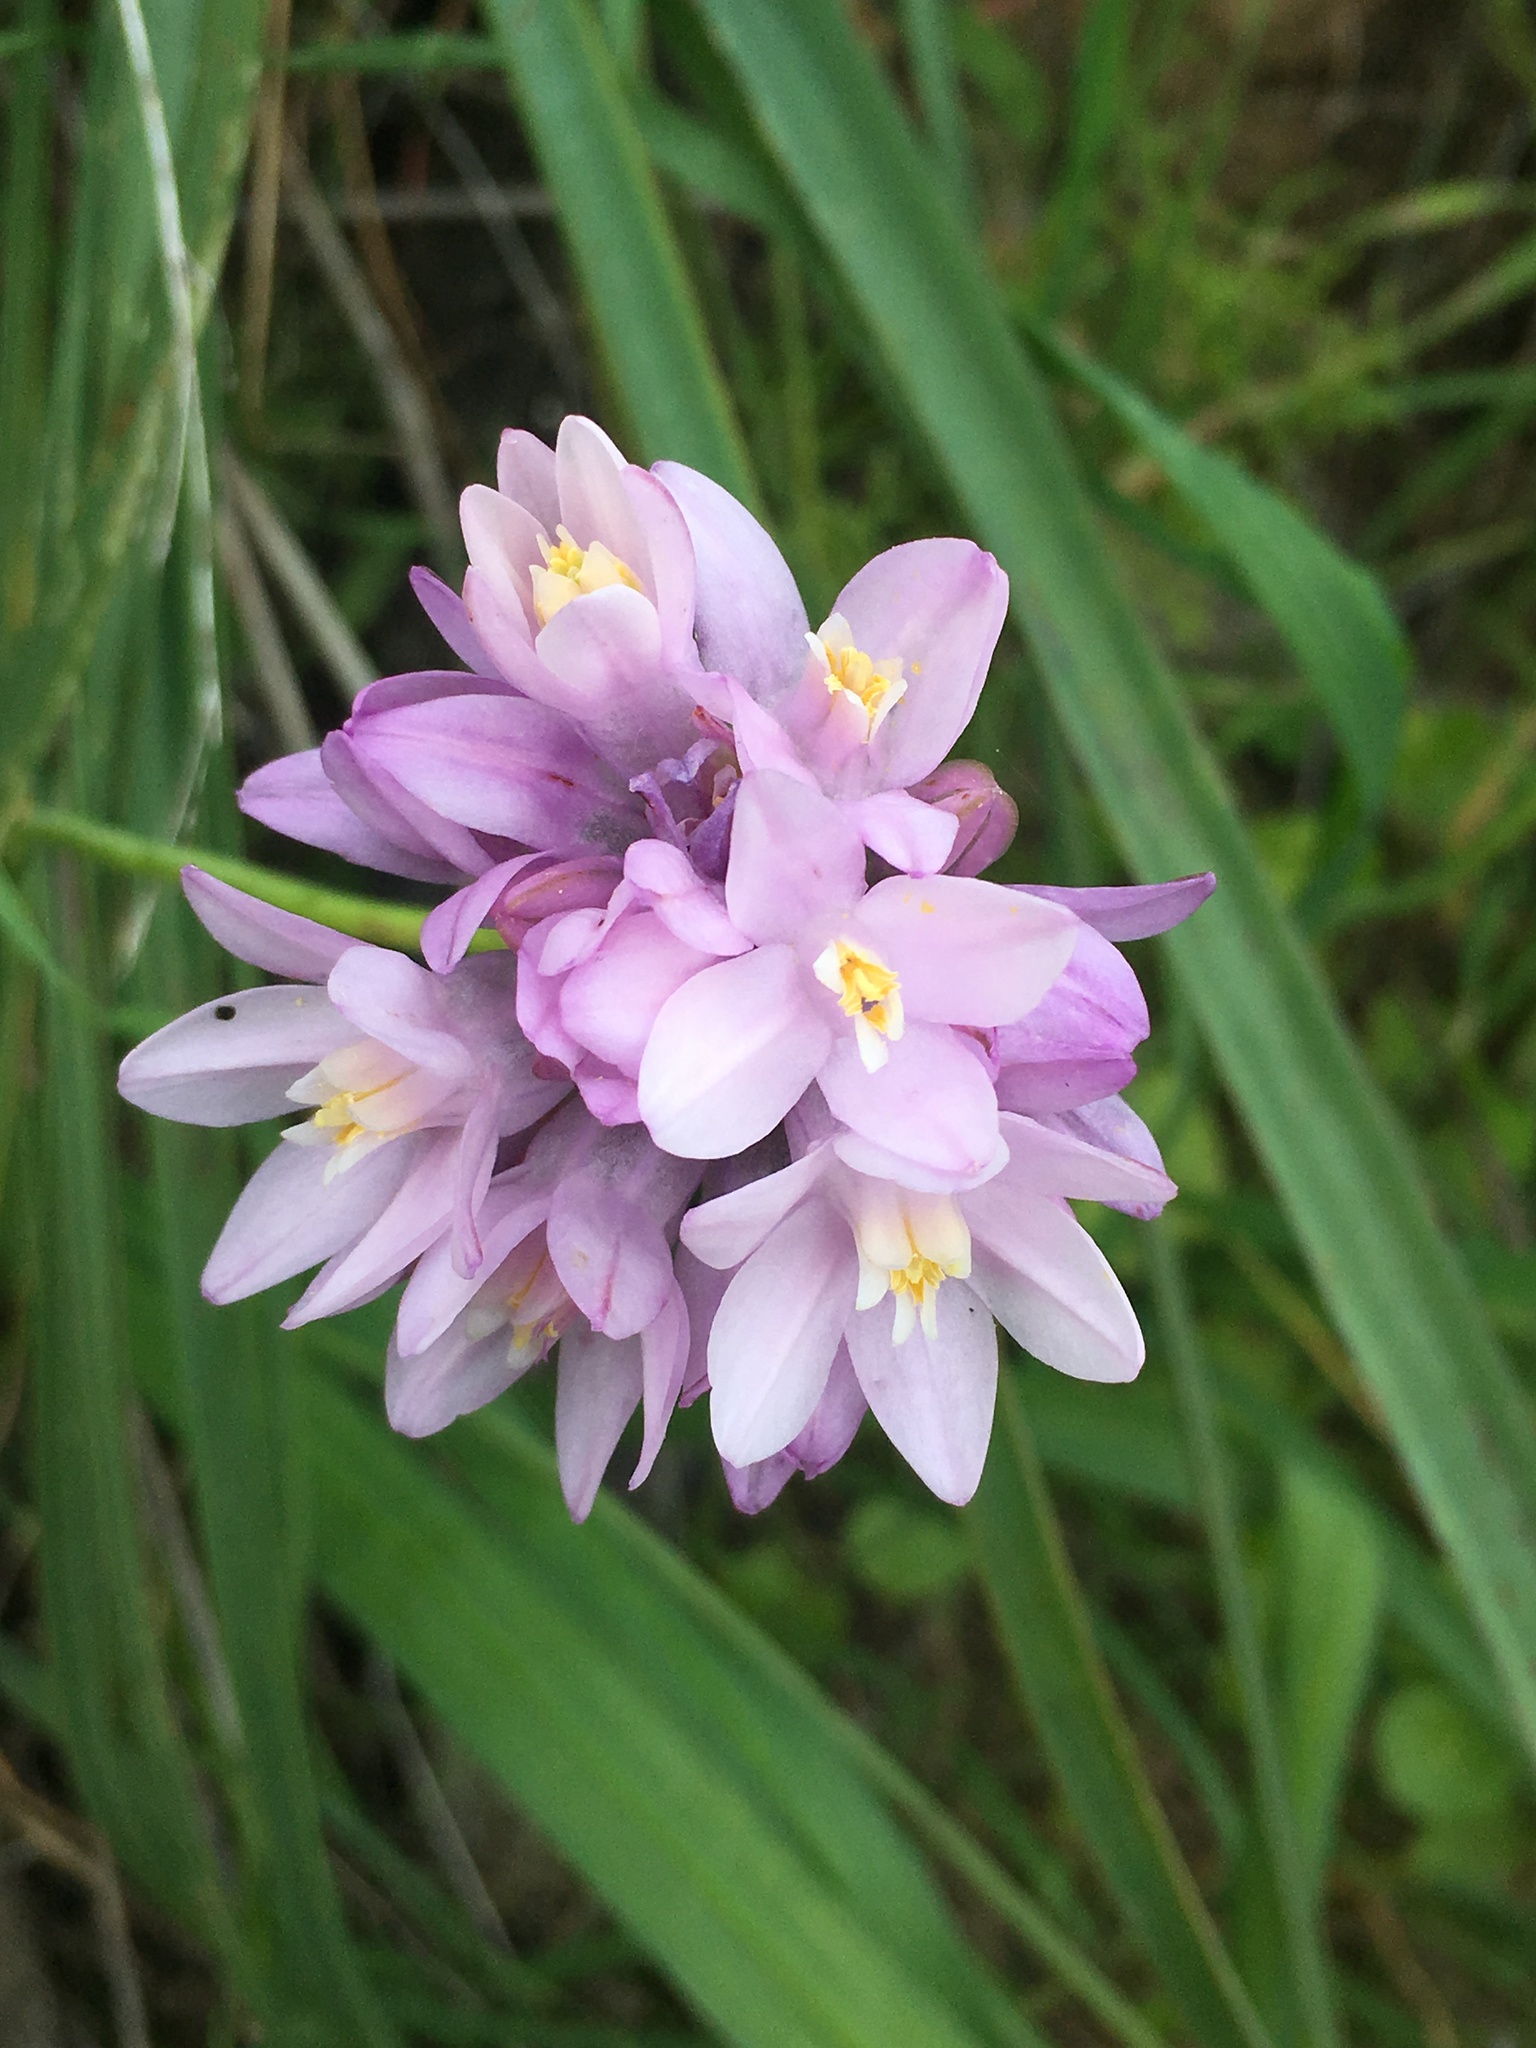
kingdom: Plantae
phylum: Tracheophyta
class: Liliopsida
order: Asparagales
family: Asparagaceae
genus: Dipterostemon
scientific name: Dipterostemon capitatus
